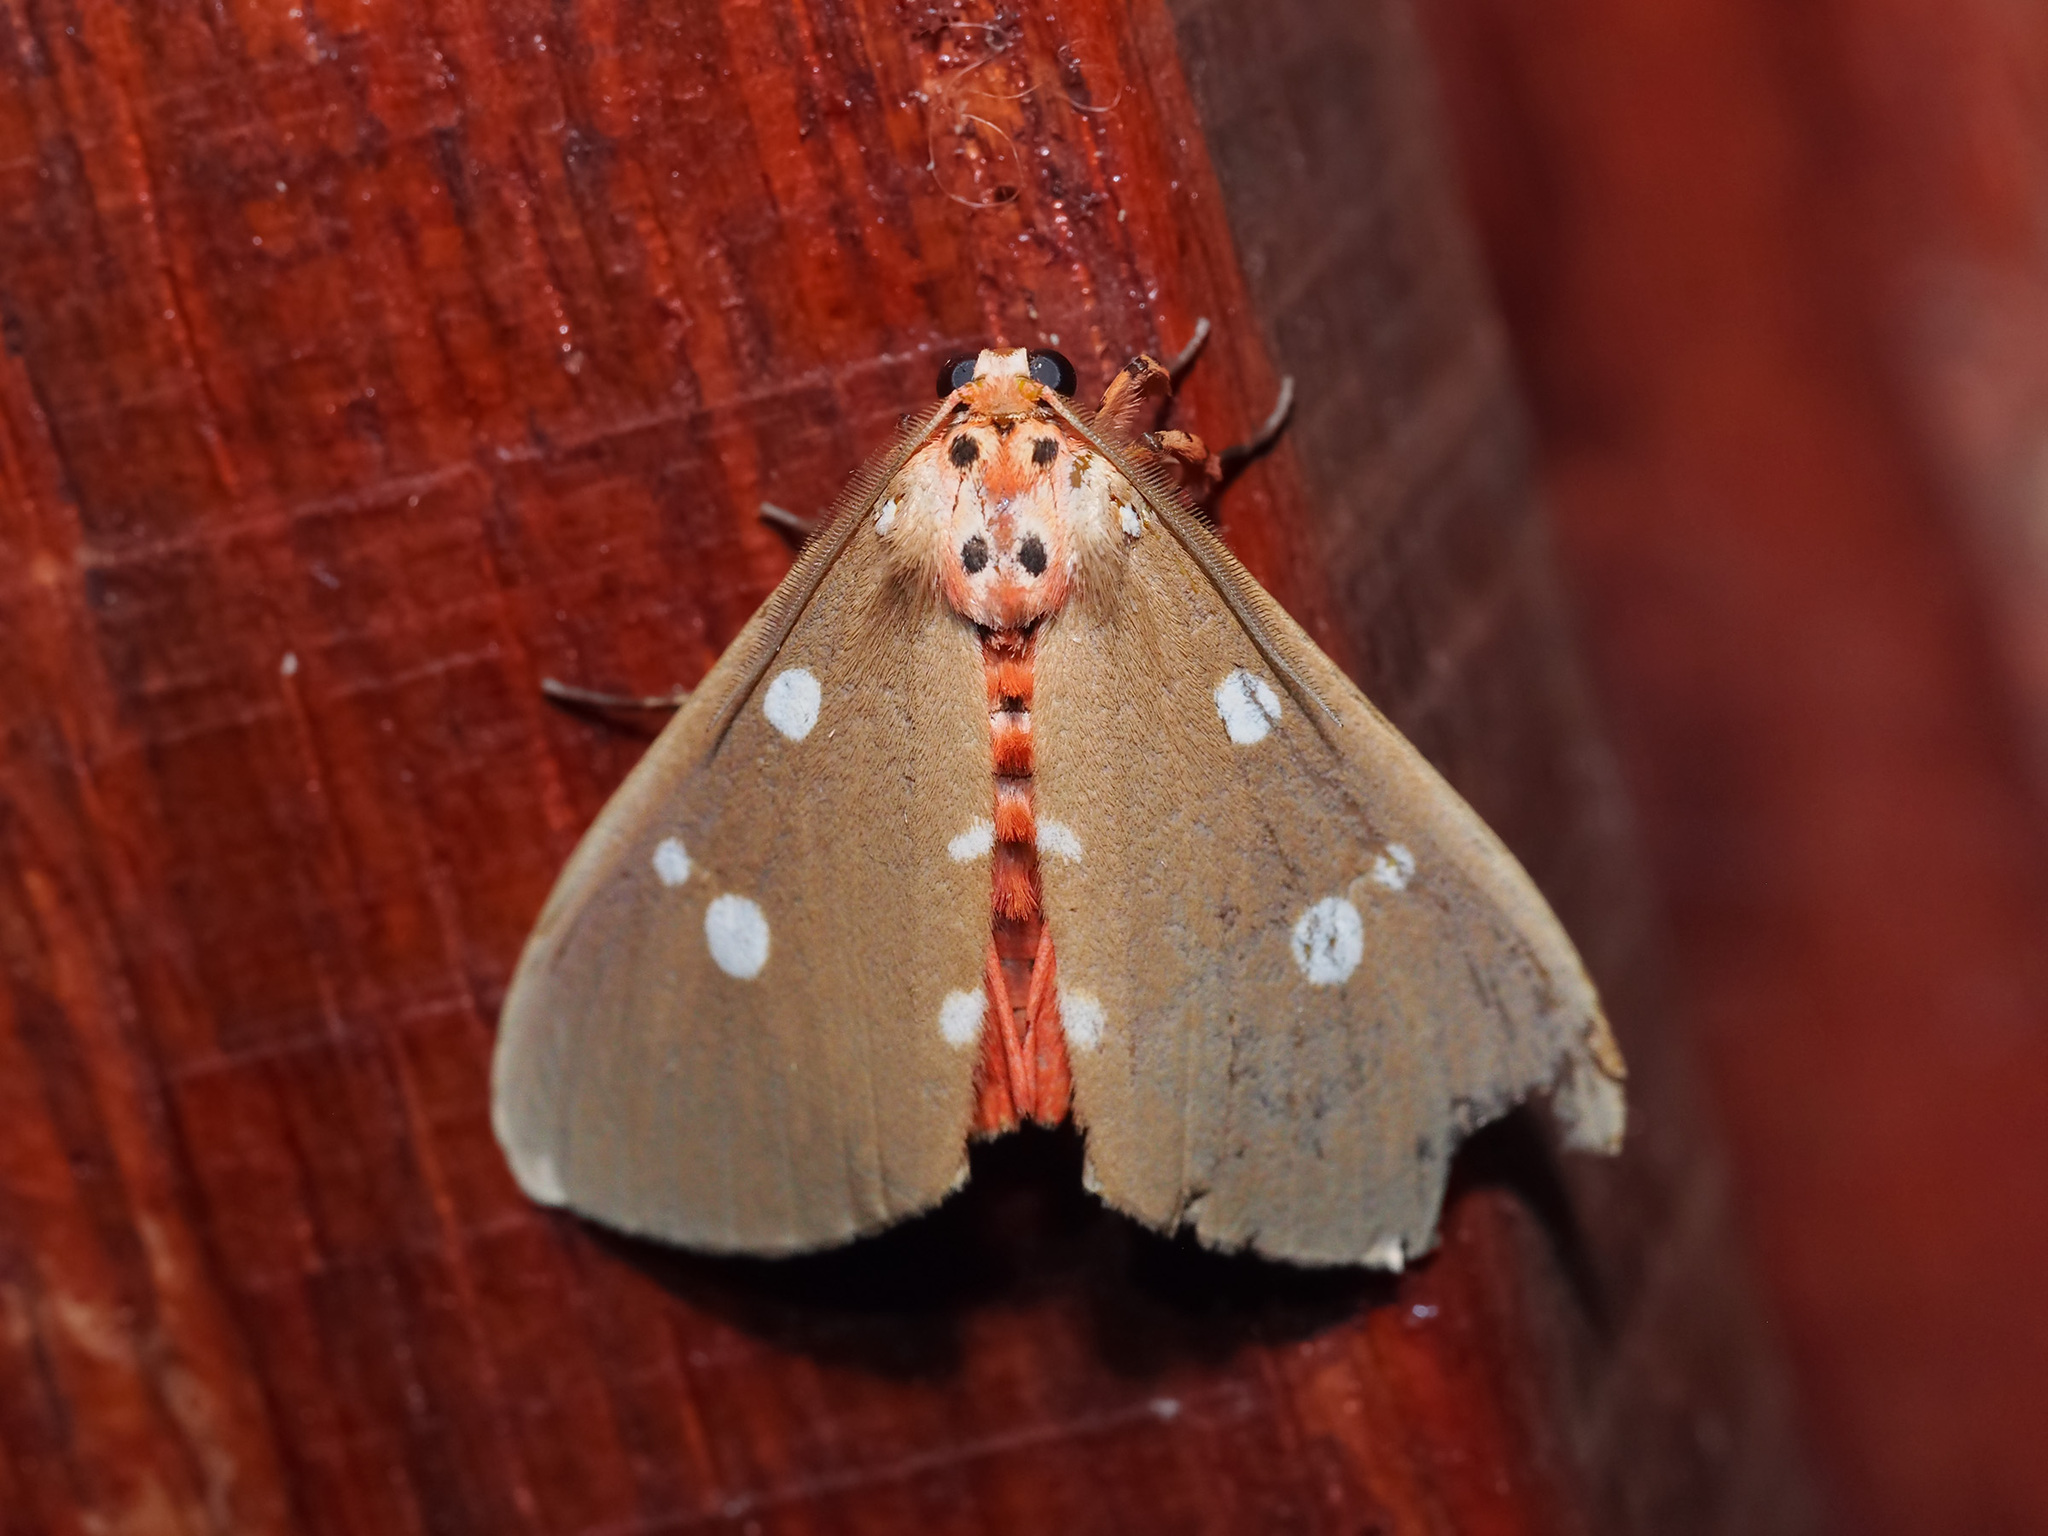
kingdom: Animalia
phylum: Arthropoda
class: Insecta
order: Lepidoptera
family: Erebidae
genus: Tinolius
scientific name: Tinolius eburneigutta
